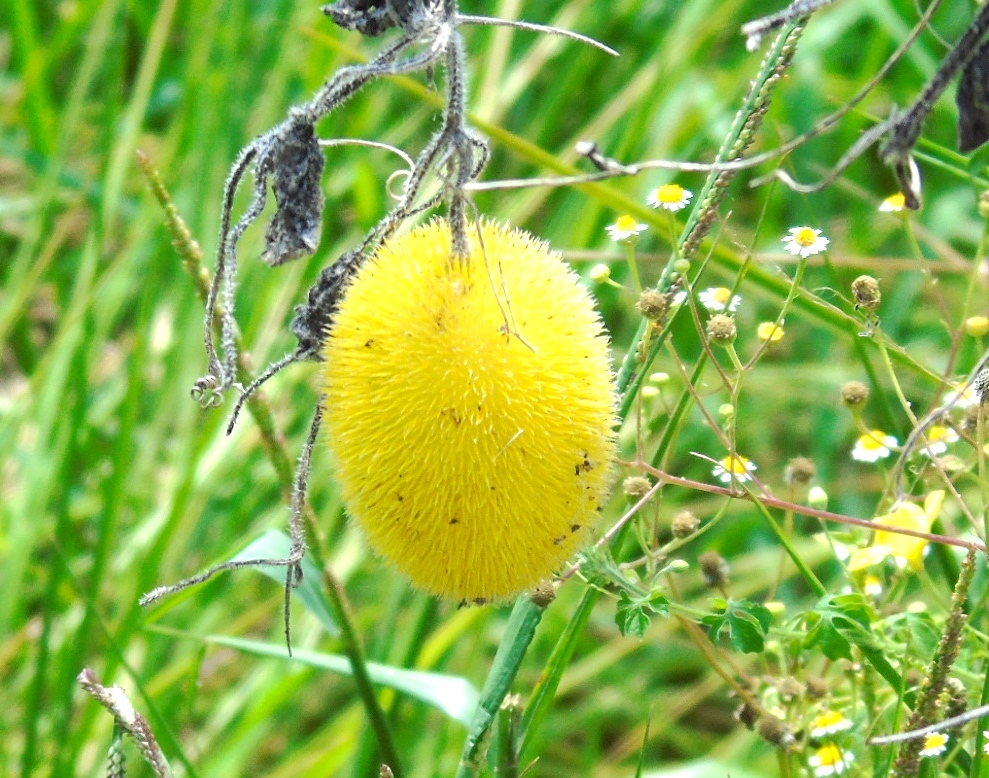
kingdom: Plantae
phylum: Tracheophyta
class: Magnoliopsida
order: Cucurbitales
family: Cucurbitaceae
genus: Cucumis
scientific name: Cucumis dipsaceus
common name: Hedgehog gourd
